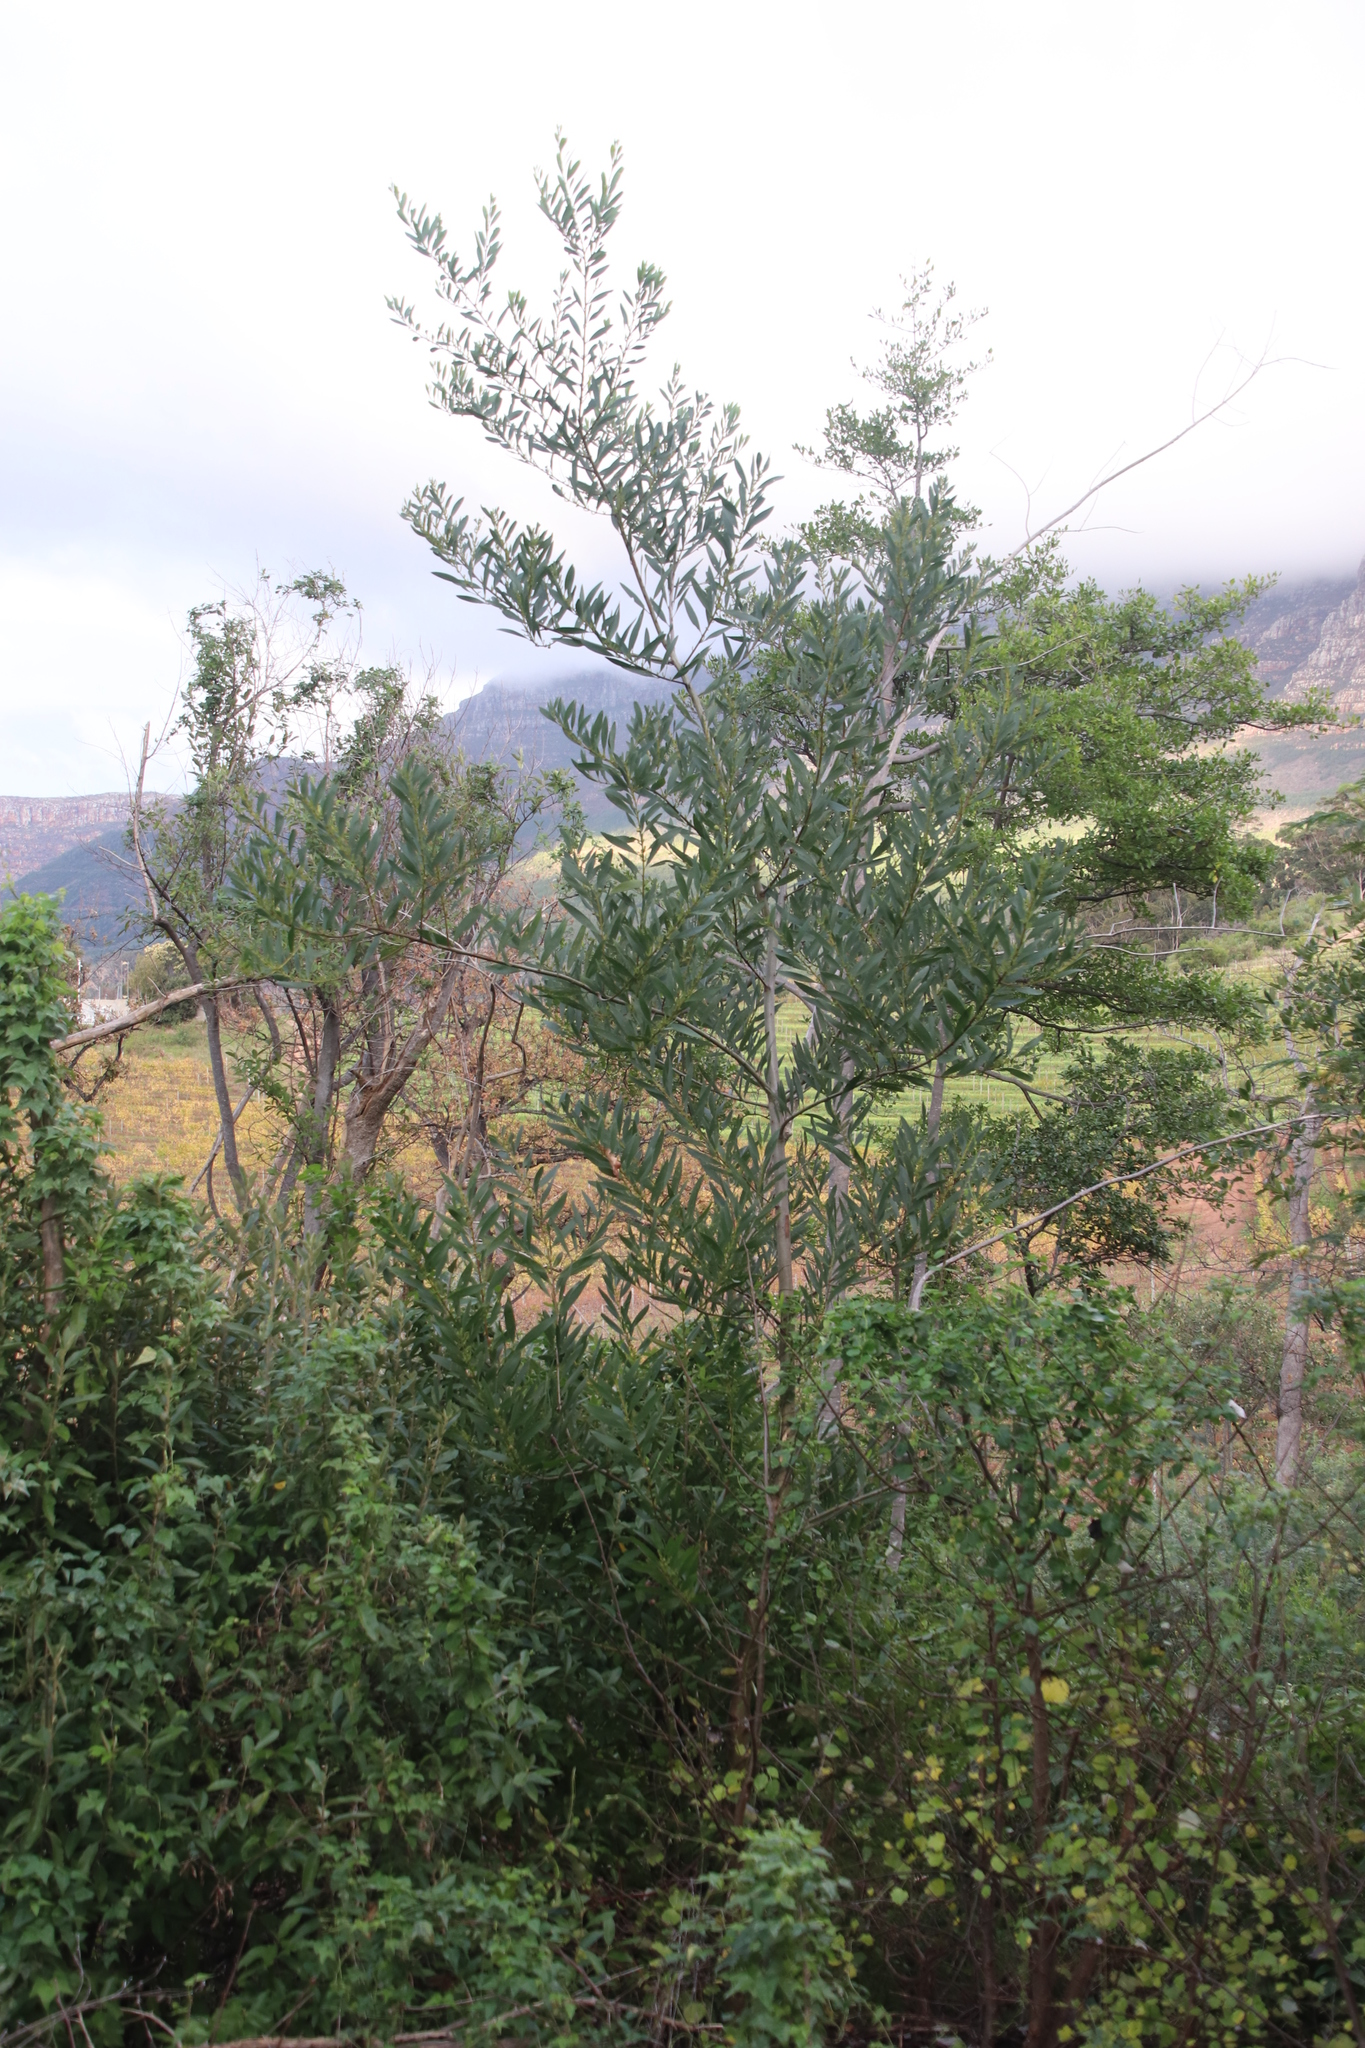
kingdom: Plantae
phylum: Tracheophyta
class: Magnoliopsida
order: Fabales
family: Fabaceae
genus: Acacia
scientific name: Acacia longifolia
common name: Sydney golden wattle
